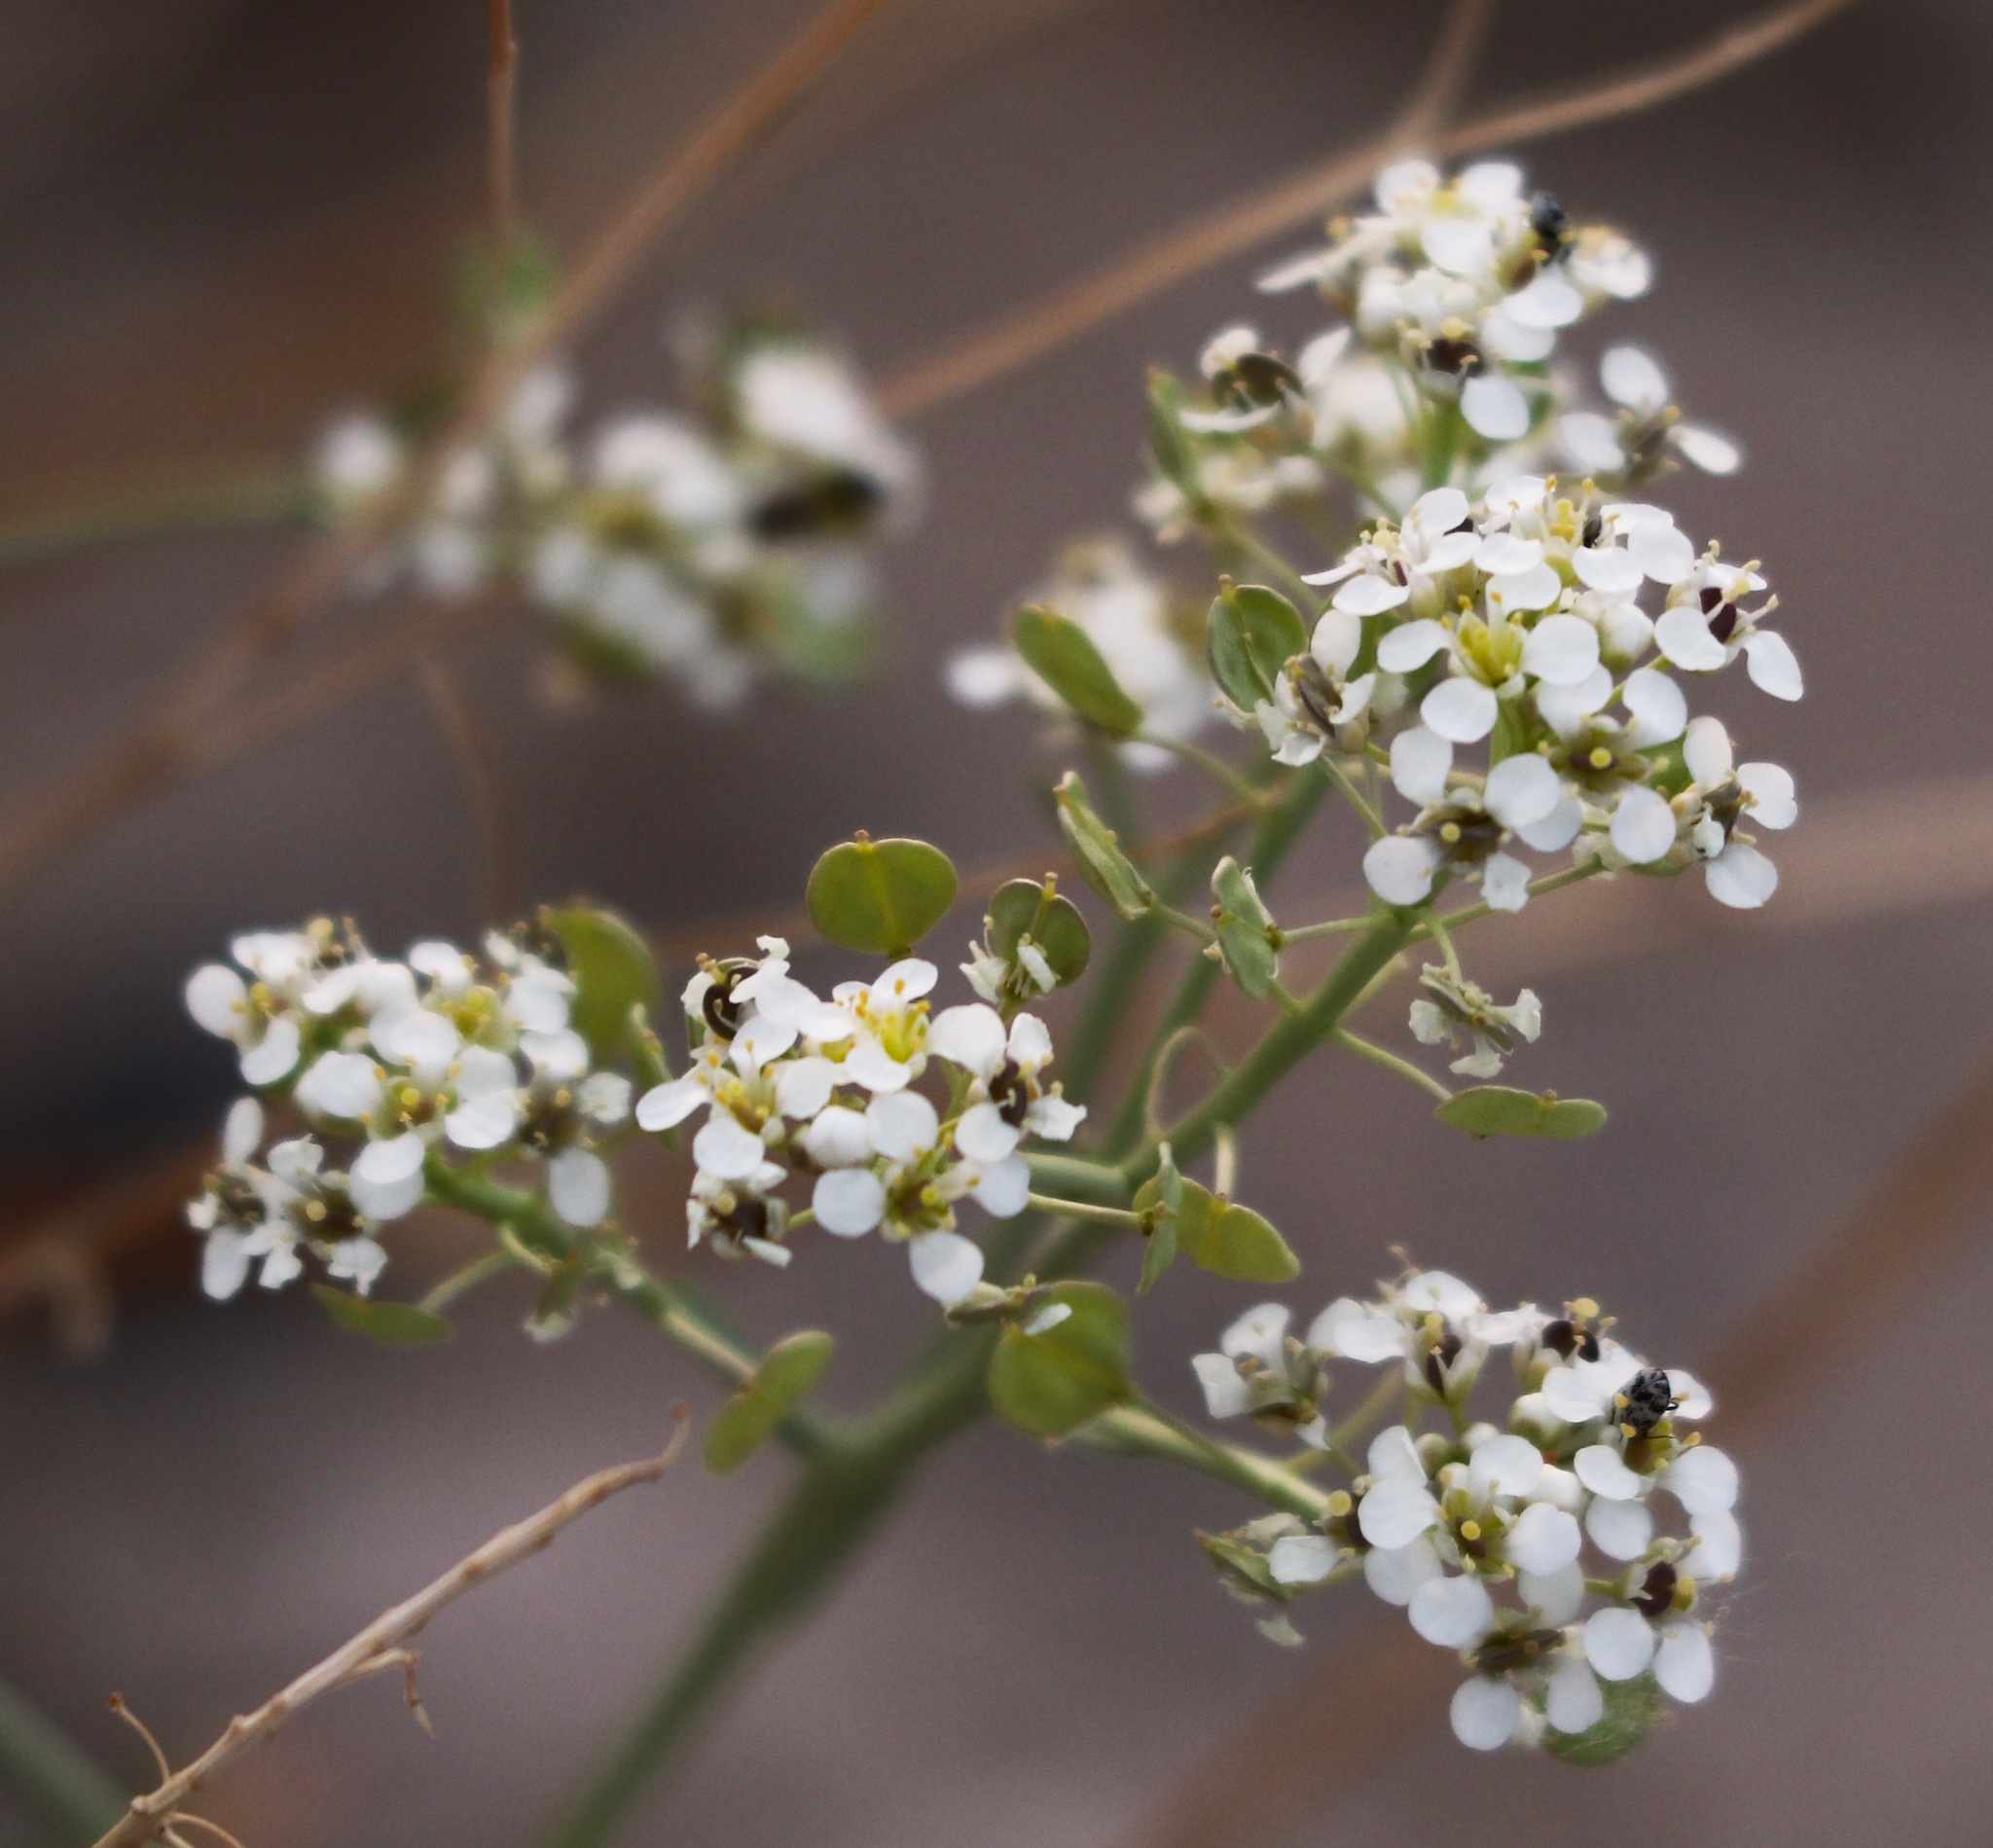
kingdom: Plantae
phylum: Tracheophyta
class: Magnoliopsida
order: Brassicales
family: Brassicaceae
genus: Lepidium
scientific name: Lepidium fremontii
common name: Fremont's pepperwort
